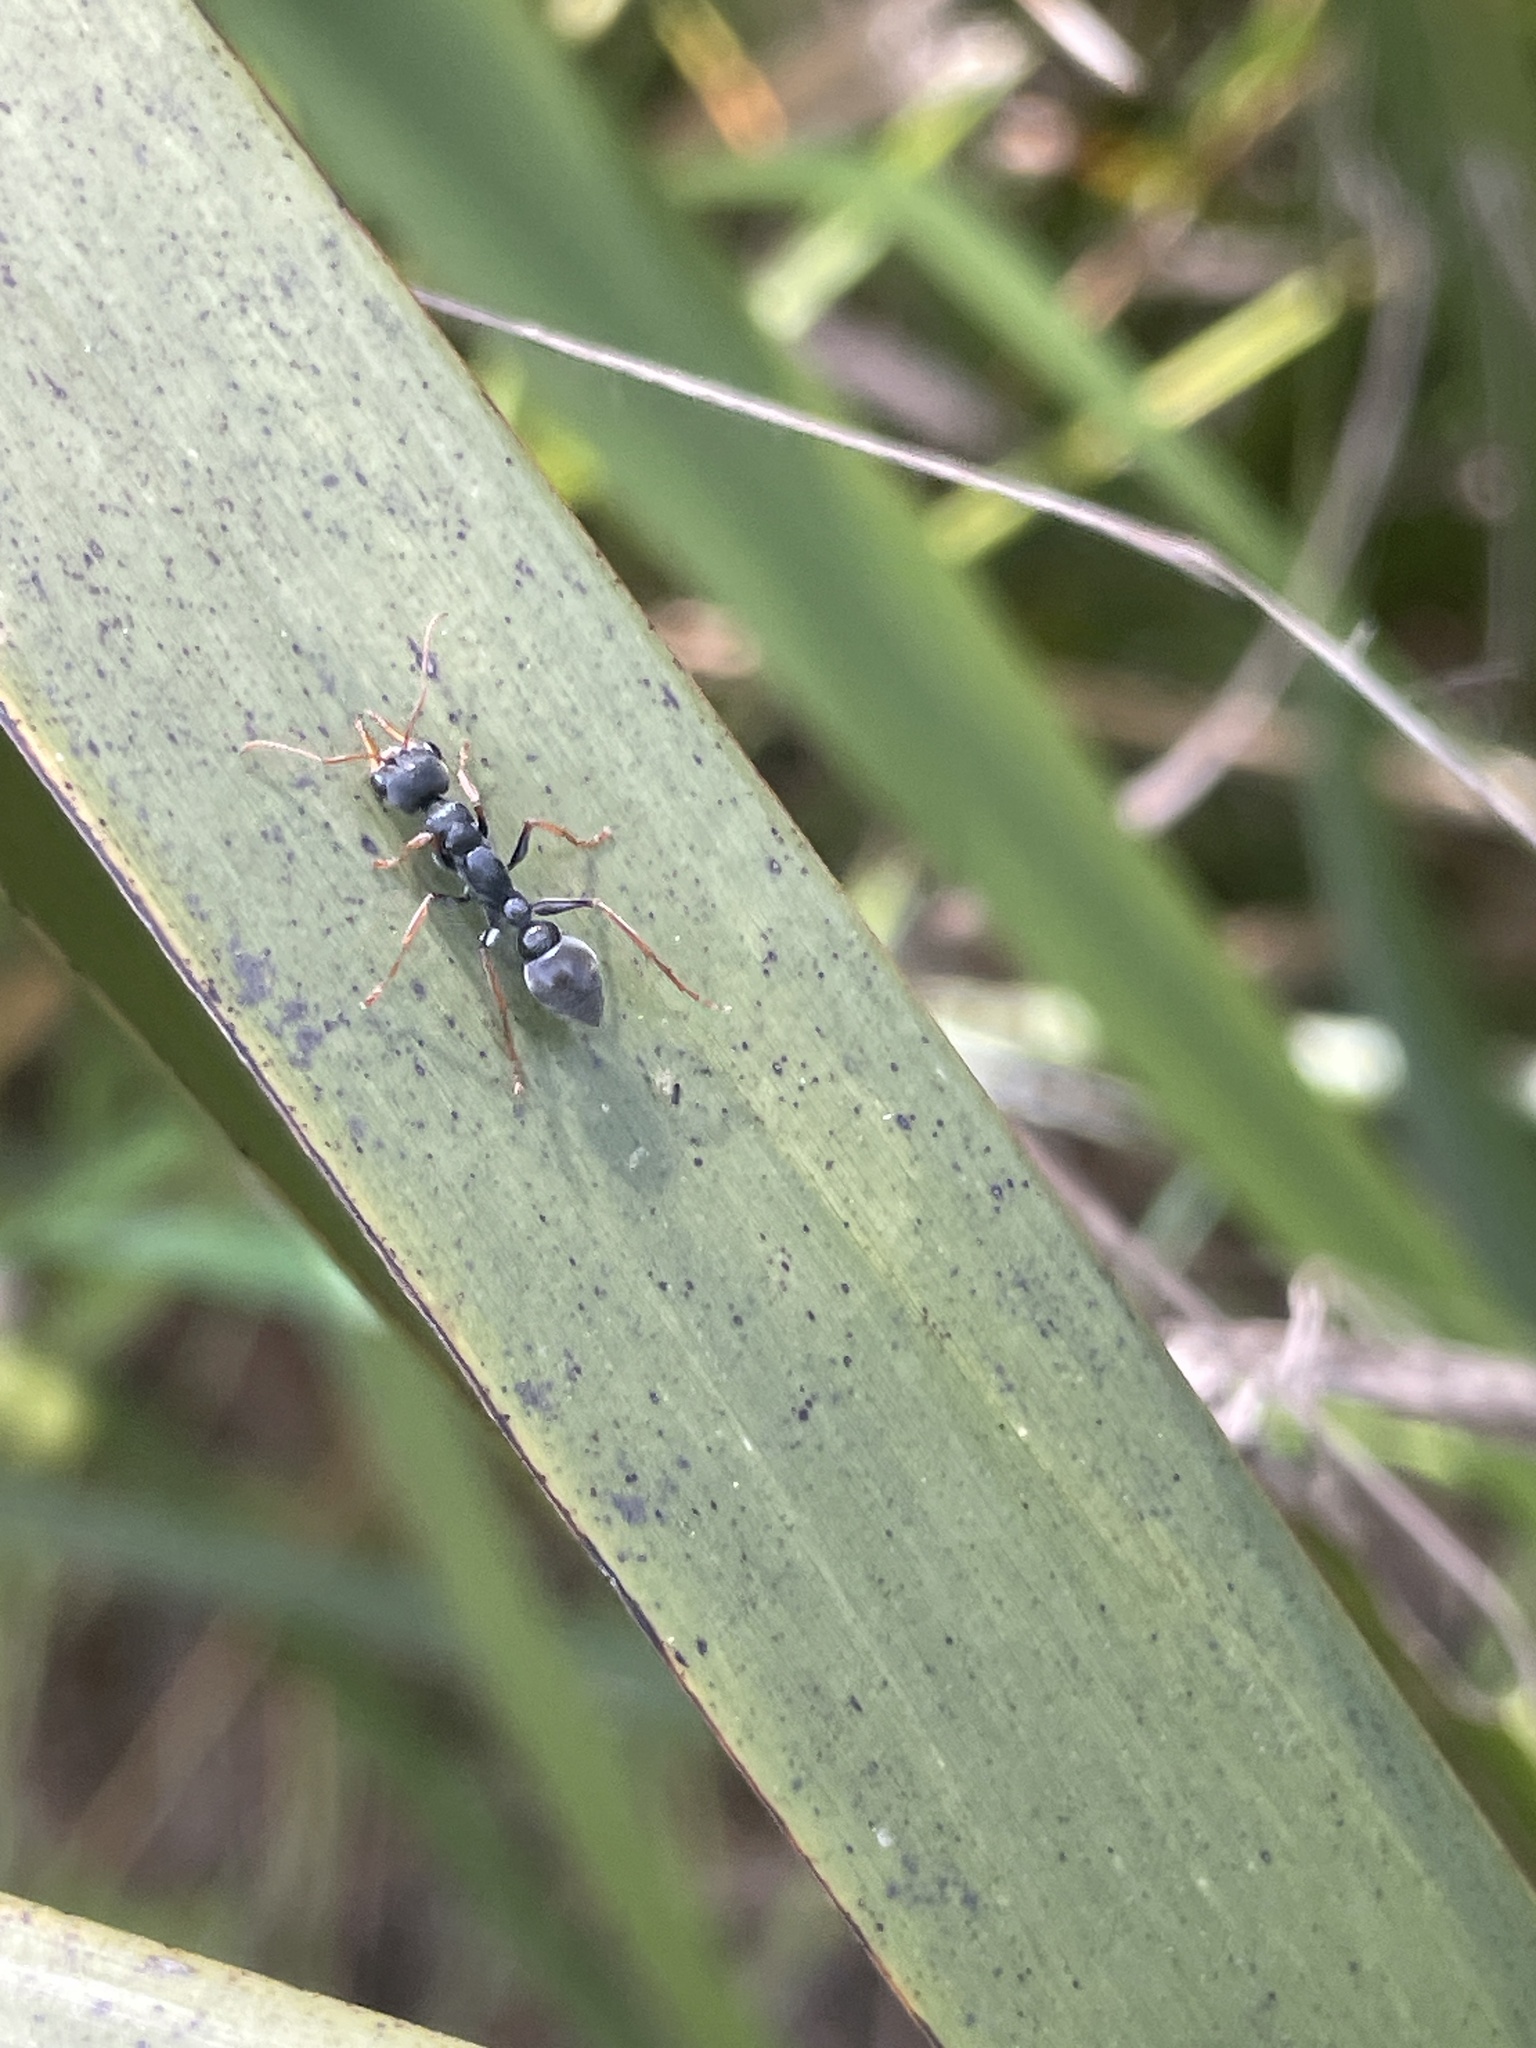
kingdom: Animalia
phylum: Arthropoda
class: Insecta
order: Hymenoptera
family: Formicidae
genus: Myrmecia
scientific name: Myrmecia pilosula
